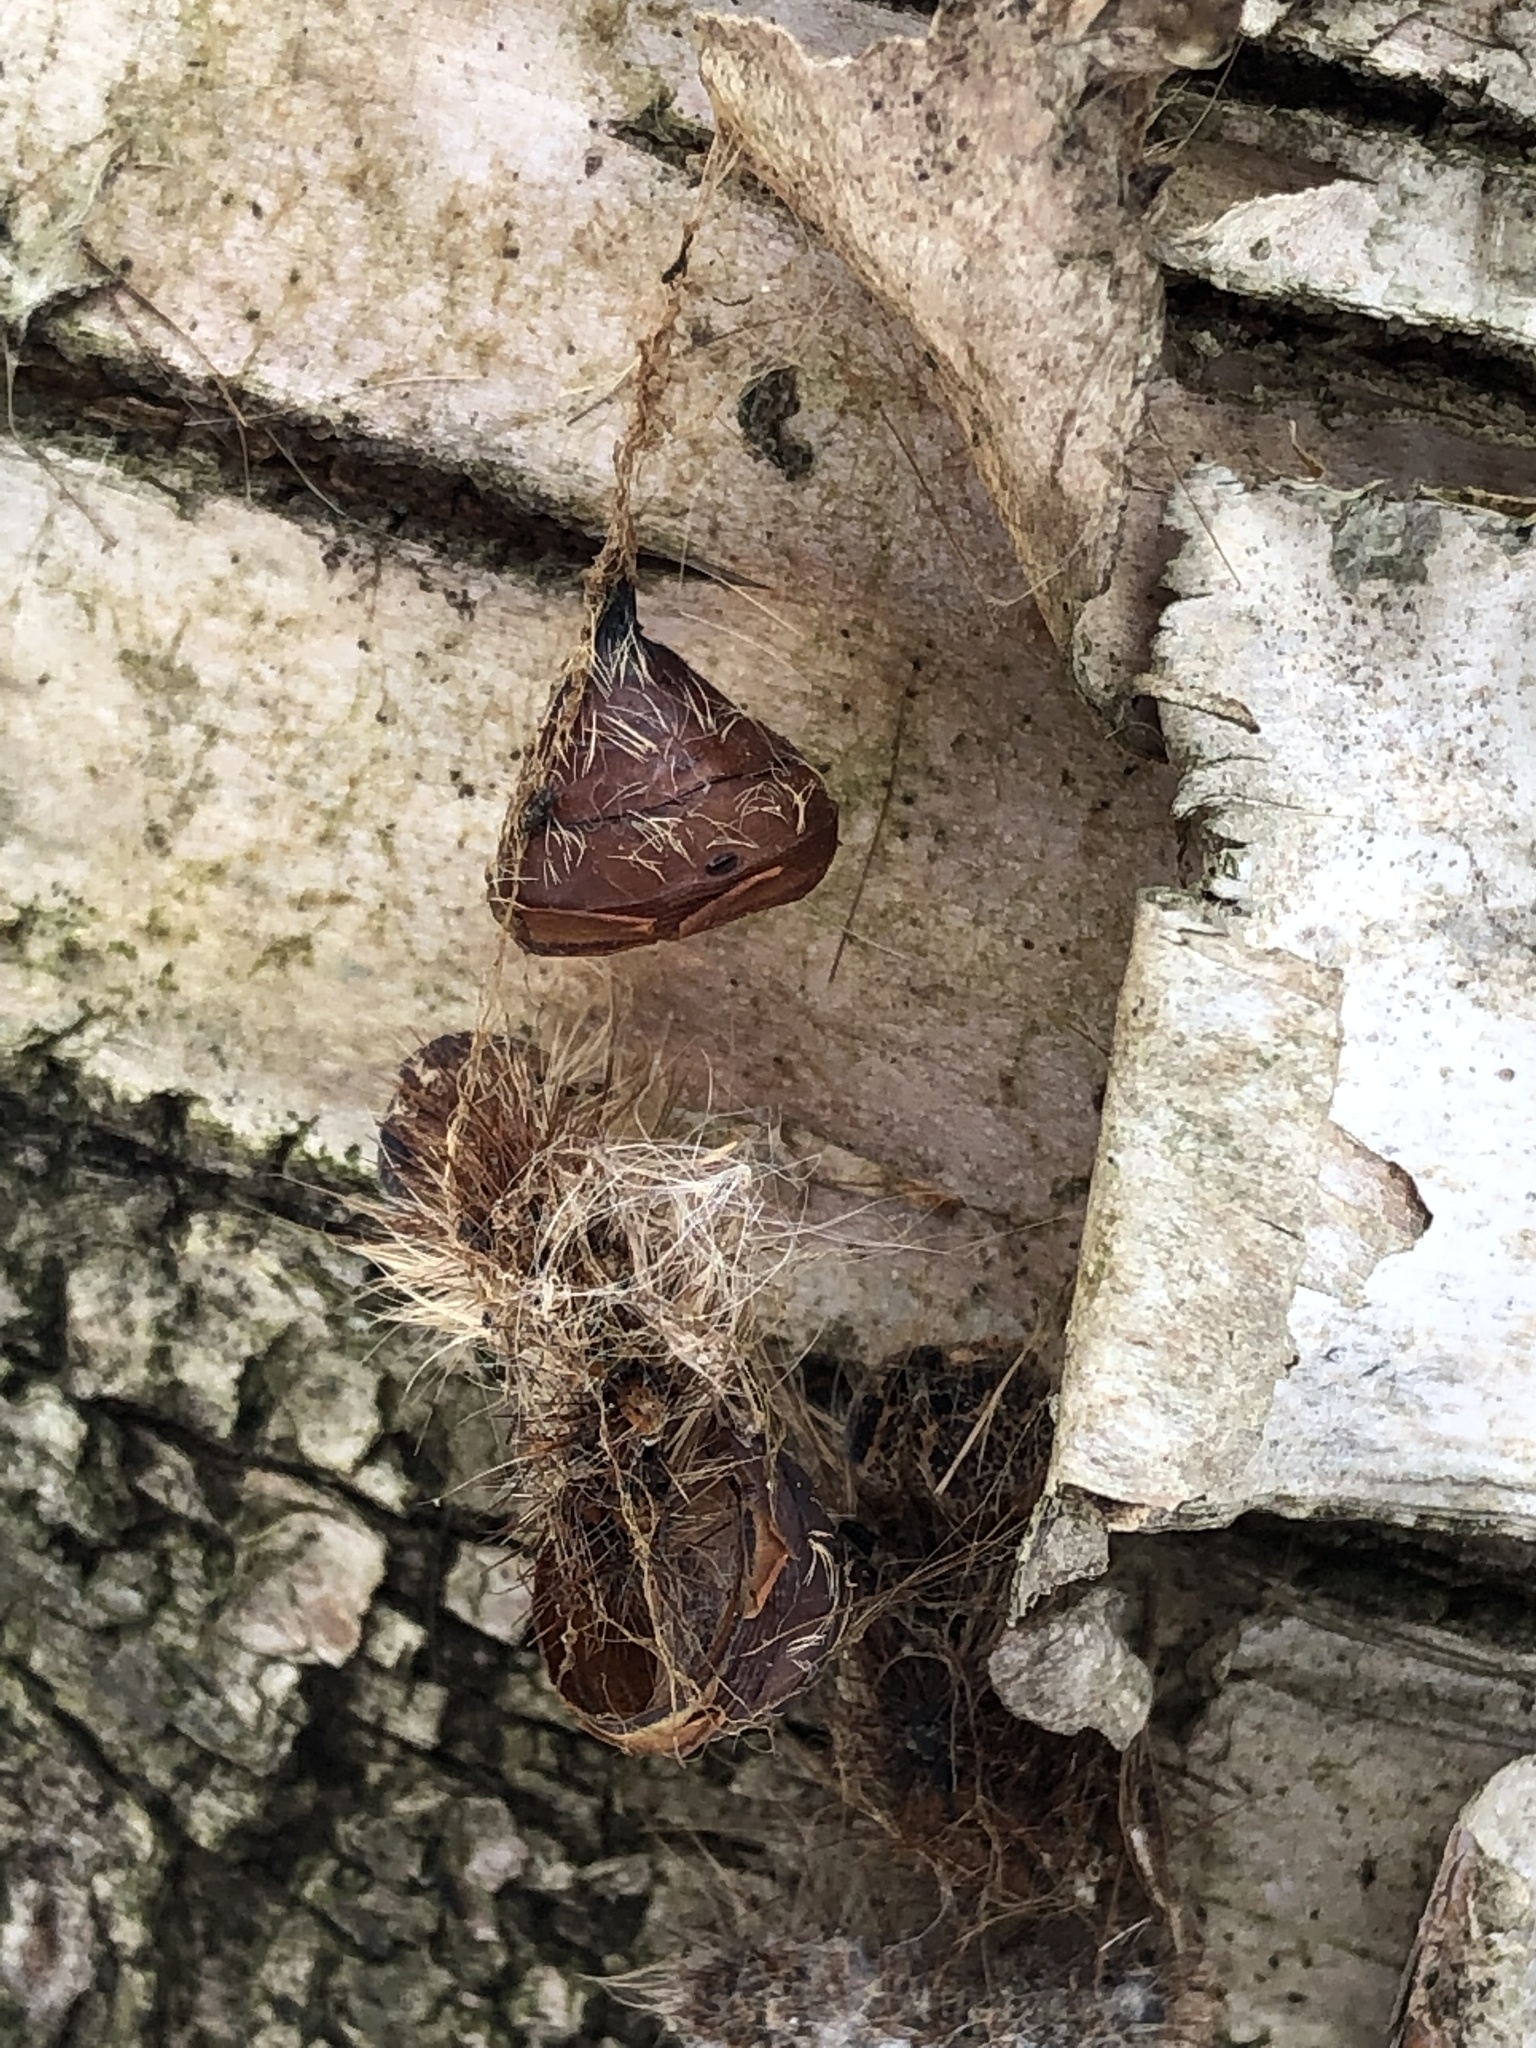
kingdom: Animalia
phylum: Arthropoda
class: Insecta
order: Lepidoptera
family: Erebidae
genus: Lymantria
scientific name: Lymantria dispar
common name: Gypsy moth
